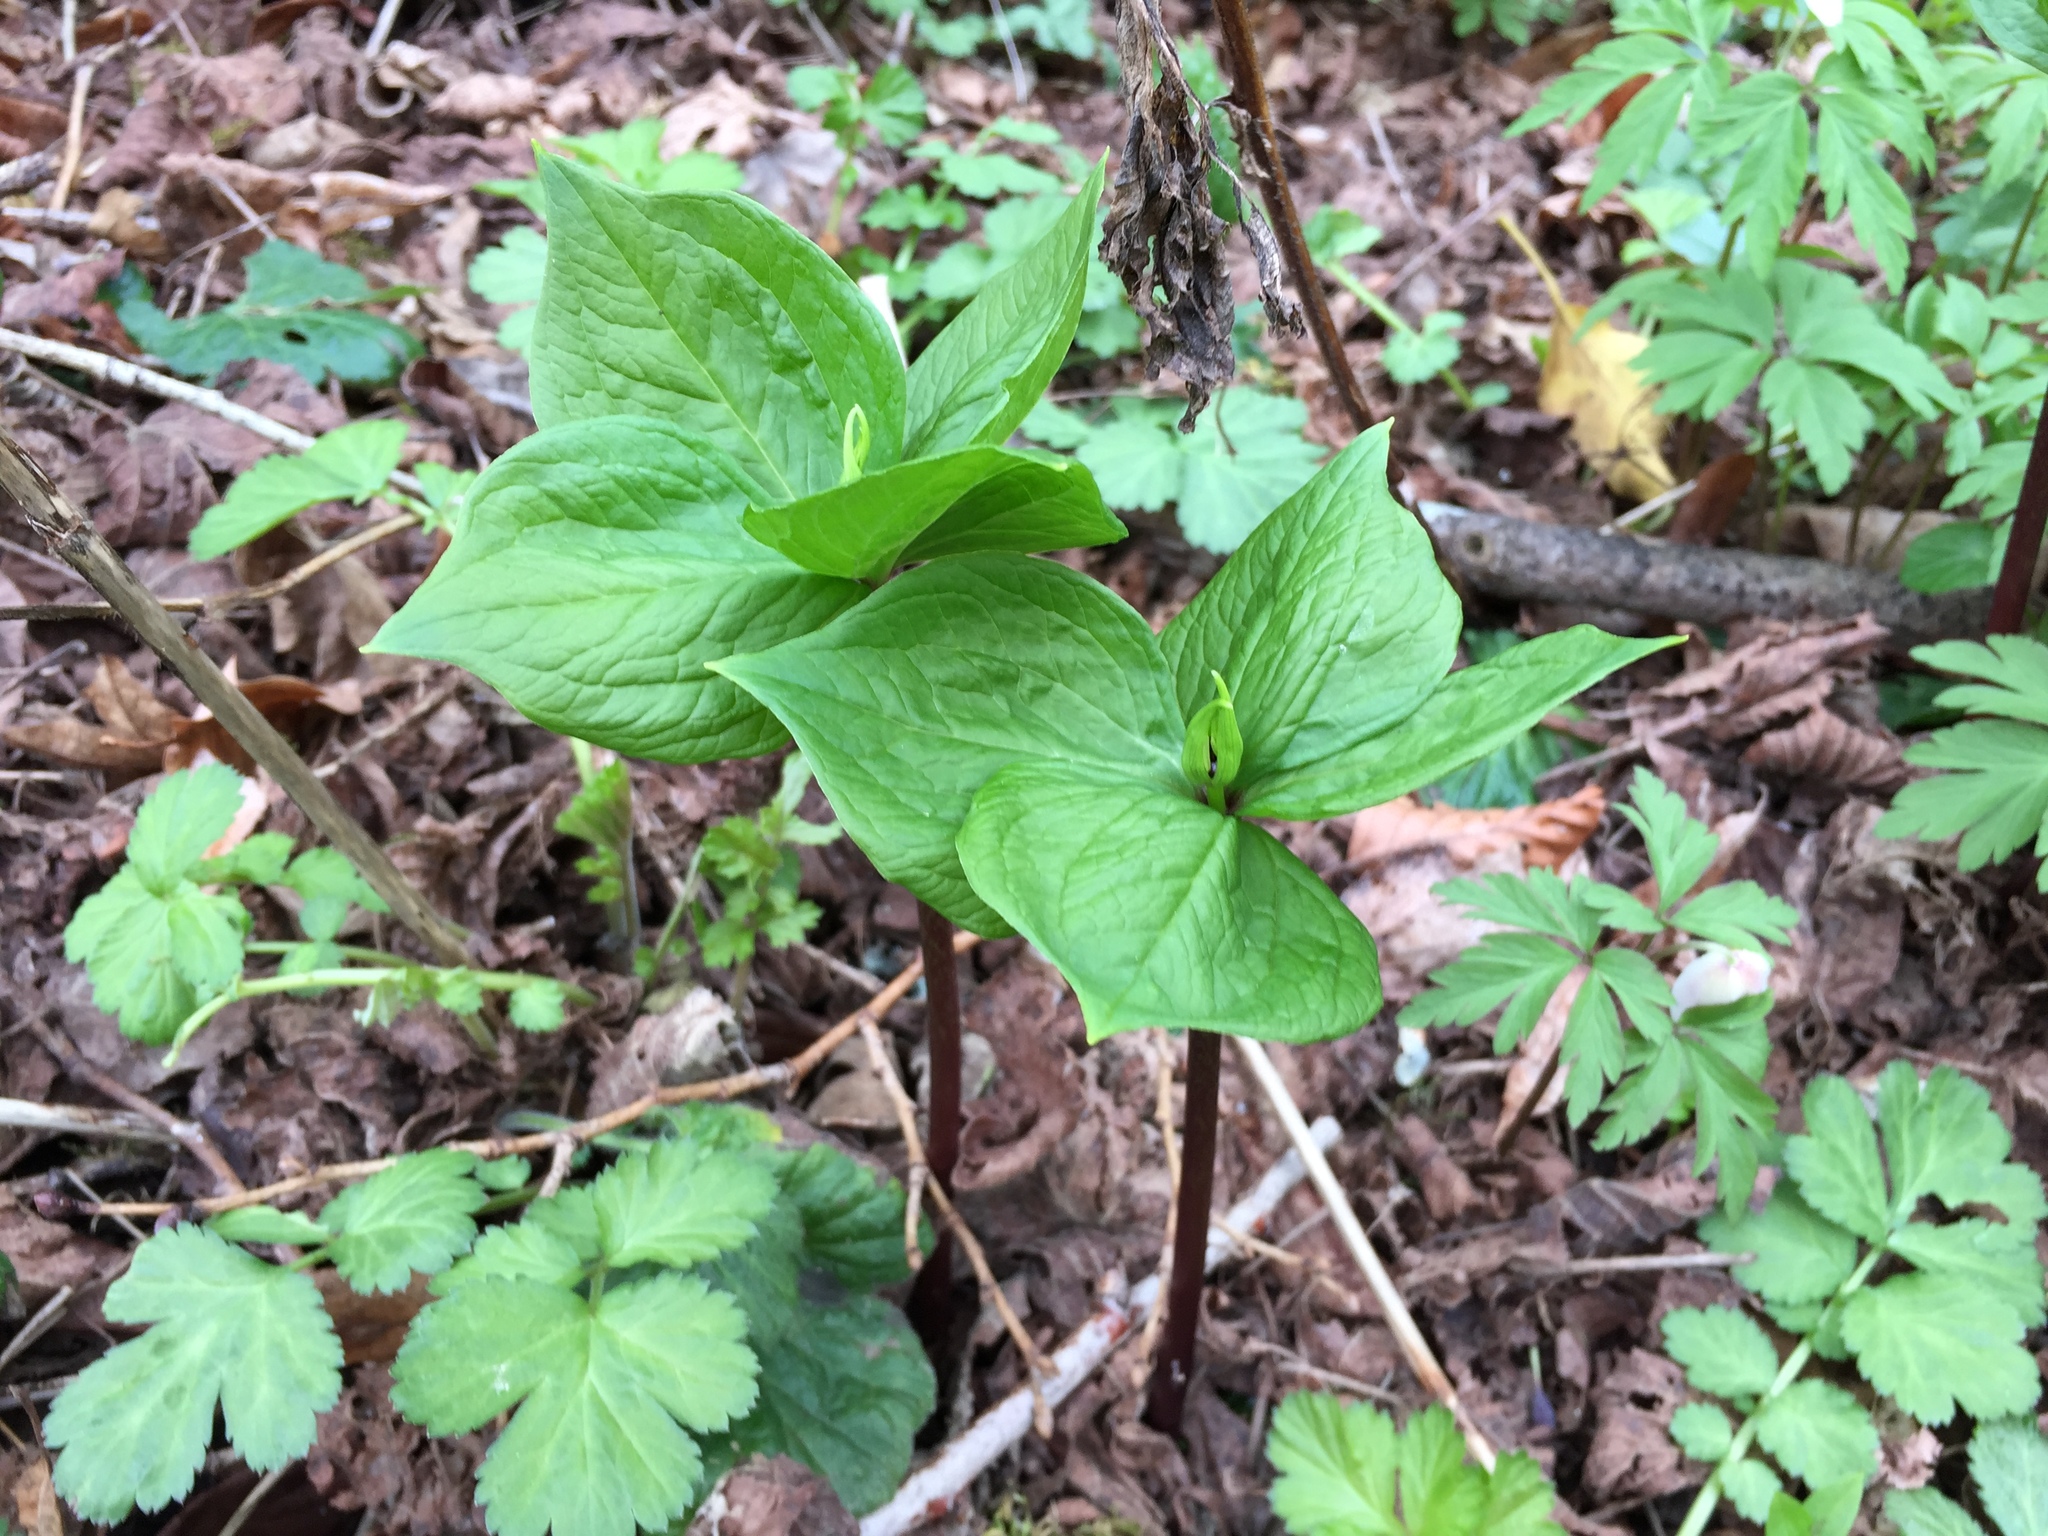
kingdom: Plantae
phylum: Tracheophyta
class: Liliopsida
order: Liliales
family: Melanthiaceae
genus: Paris
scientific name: Paris quadrifolia
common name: Herb-paris
